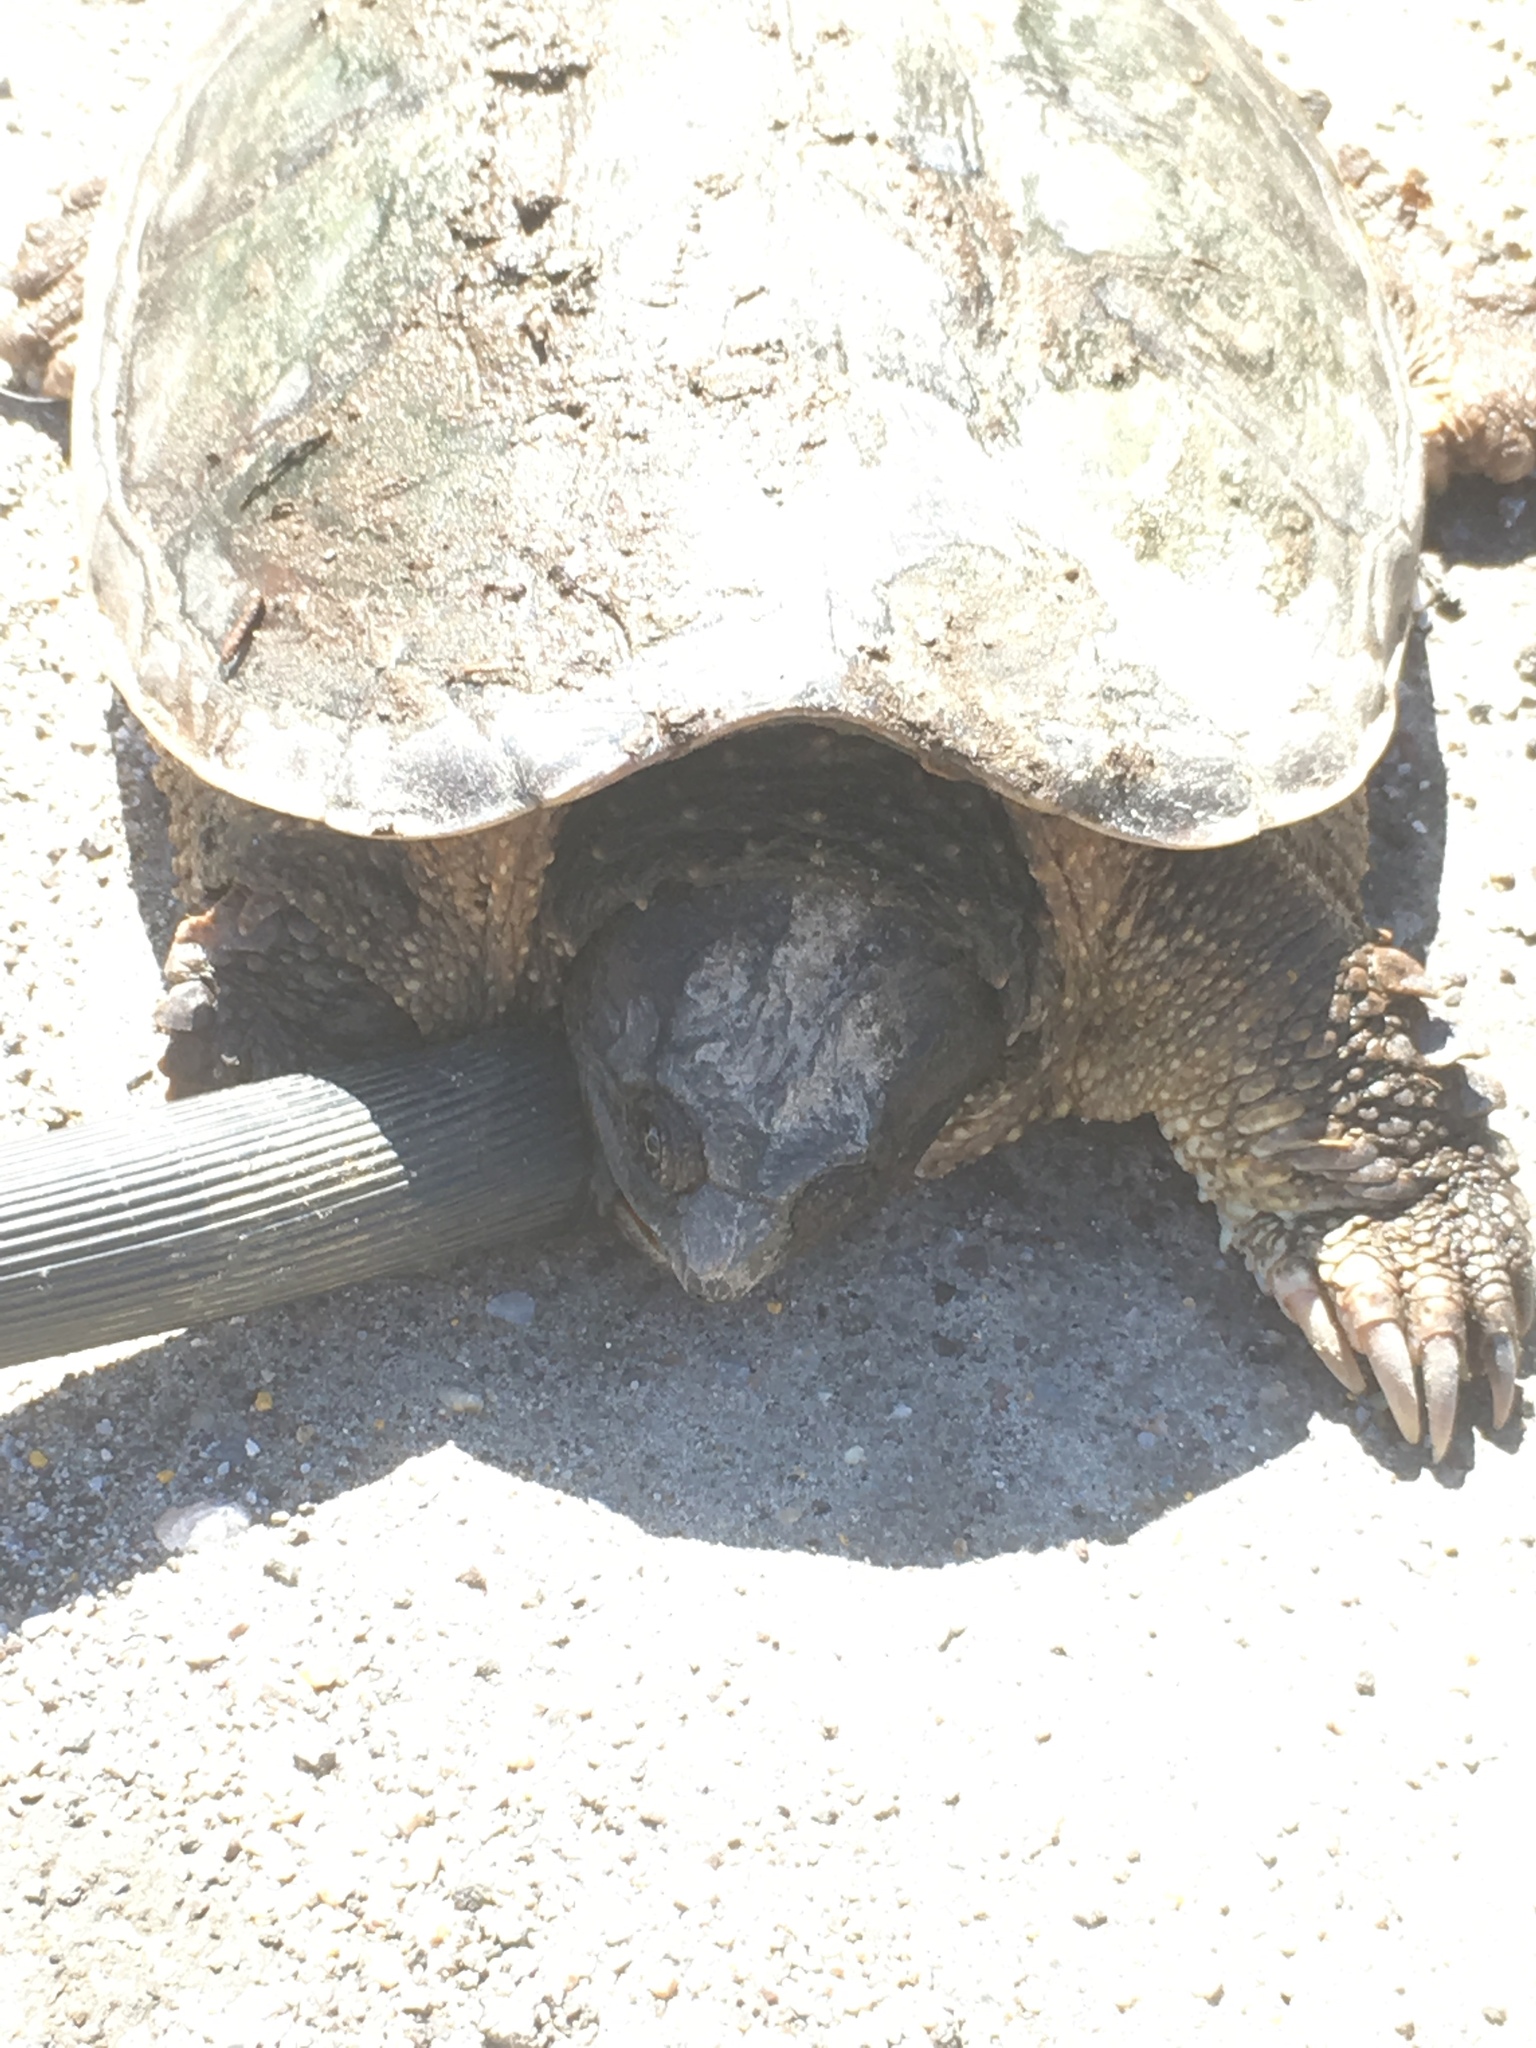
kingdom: Animalia
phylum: Chordata
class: Testudines
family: Chelydridae
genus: Chelydra
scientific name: Chelydra serpentina
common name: Common snapping turtle
